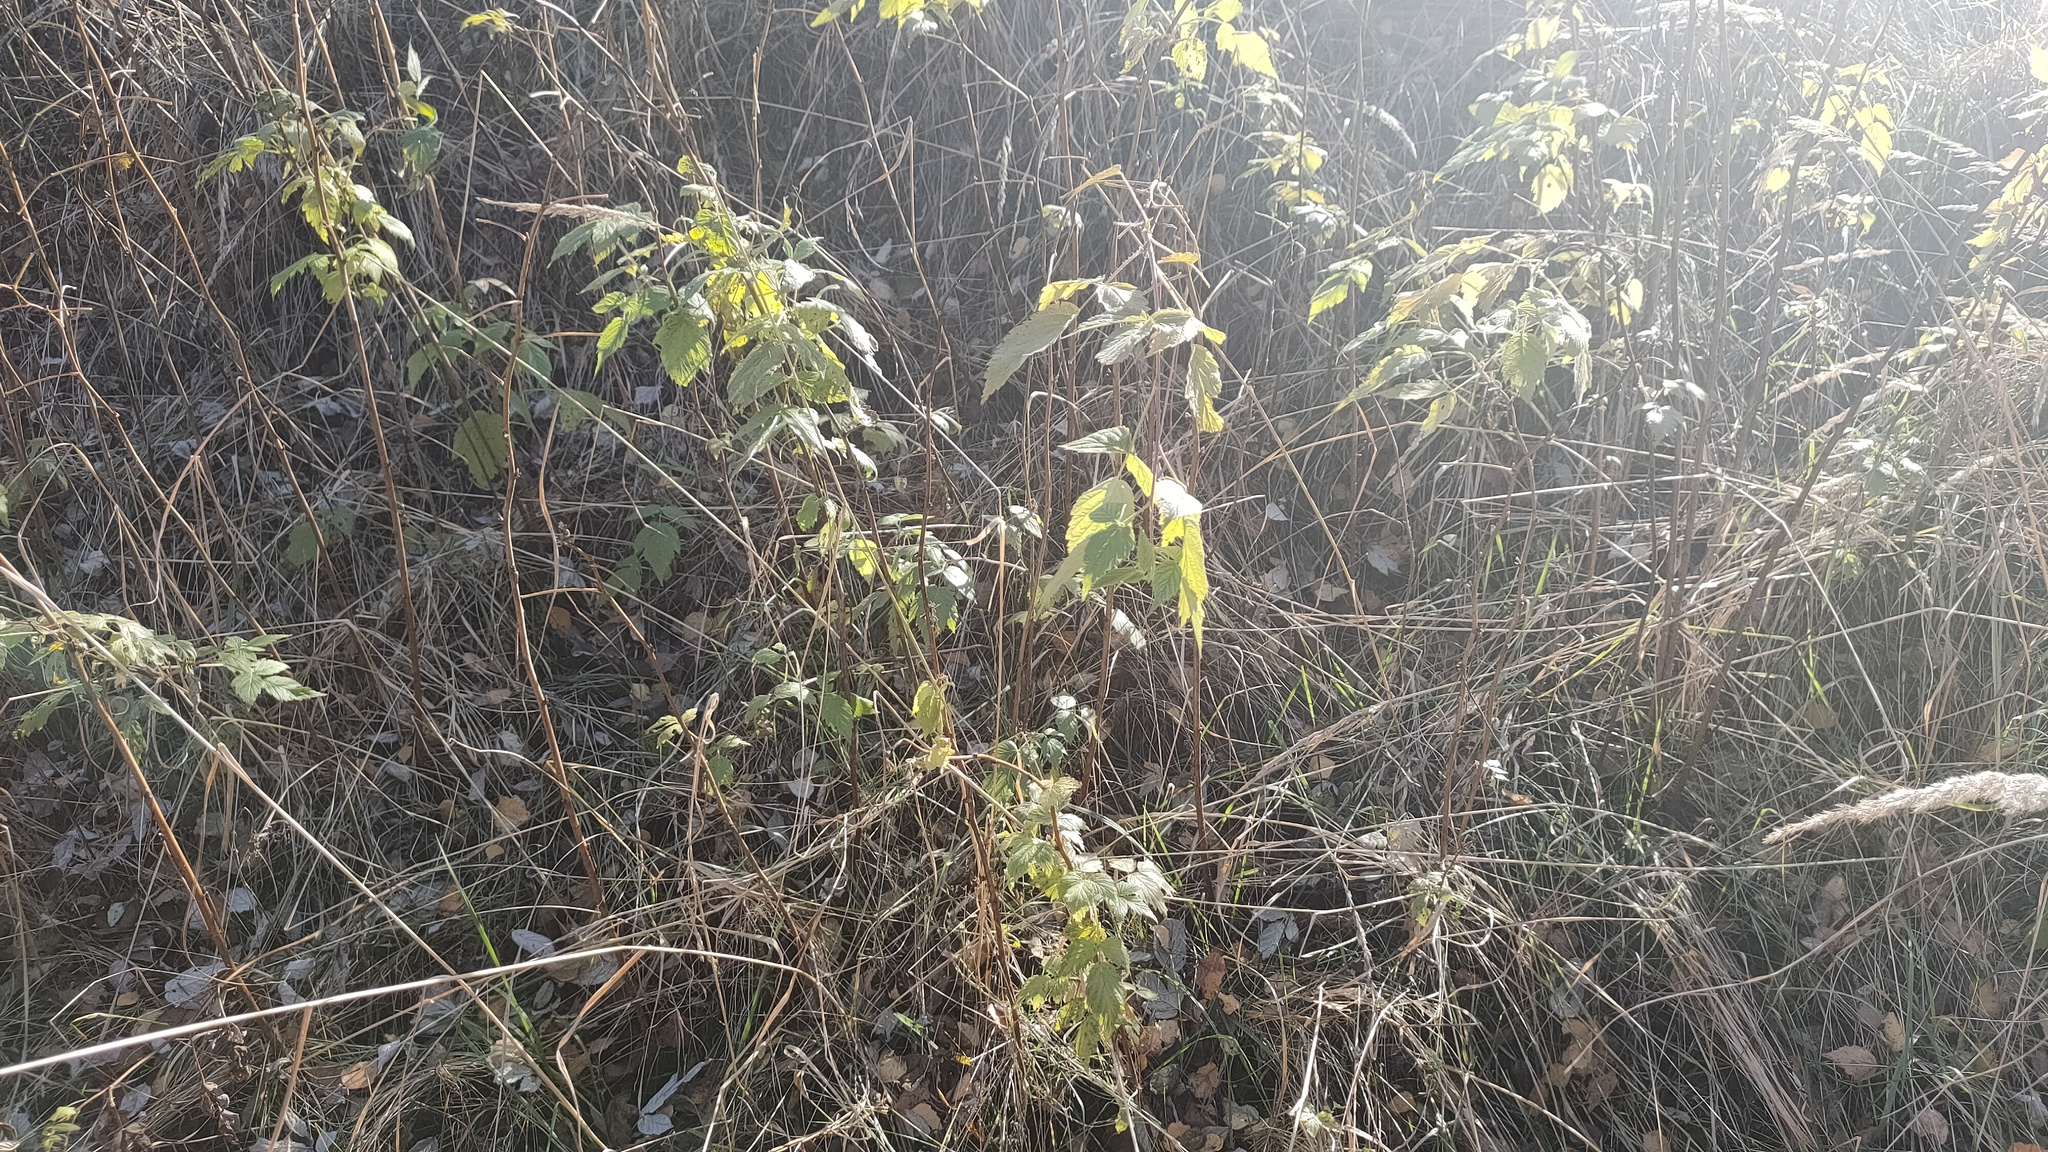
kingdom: Plantae
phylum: Tracheophyta
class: Magnoliopsida
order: Rosales
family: Rosaceae
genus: Rubus
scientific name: Rubus idaeus
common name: Raspberry
